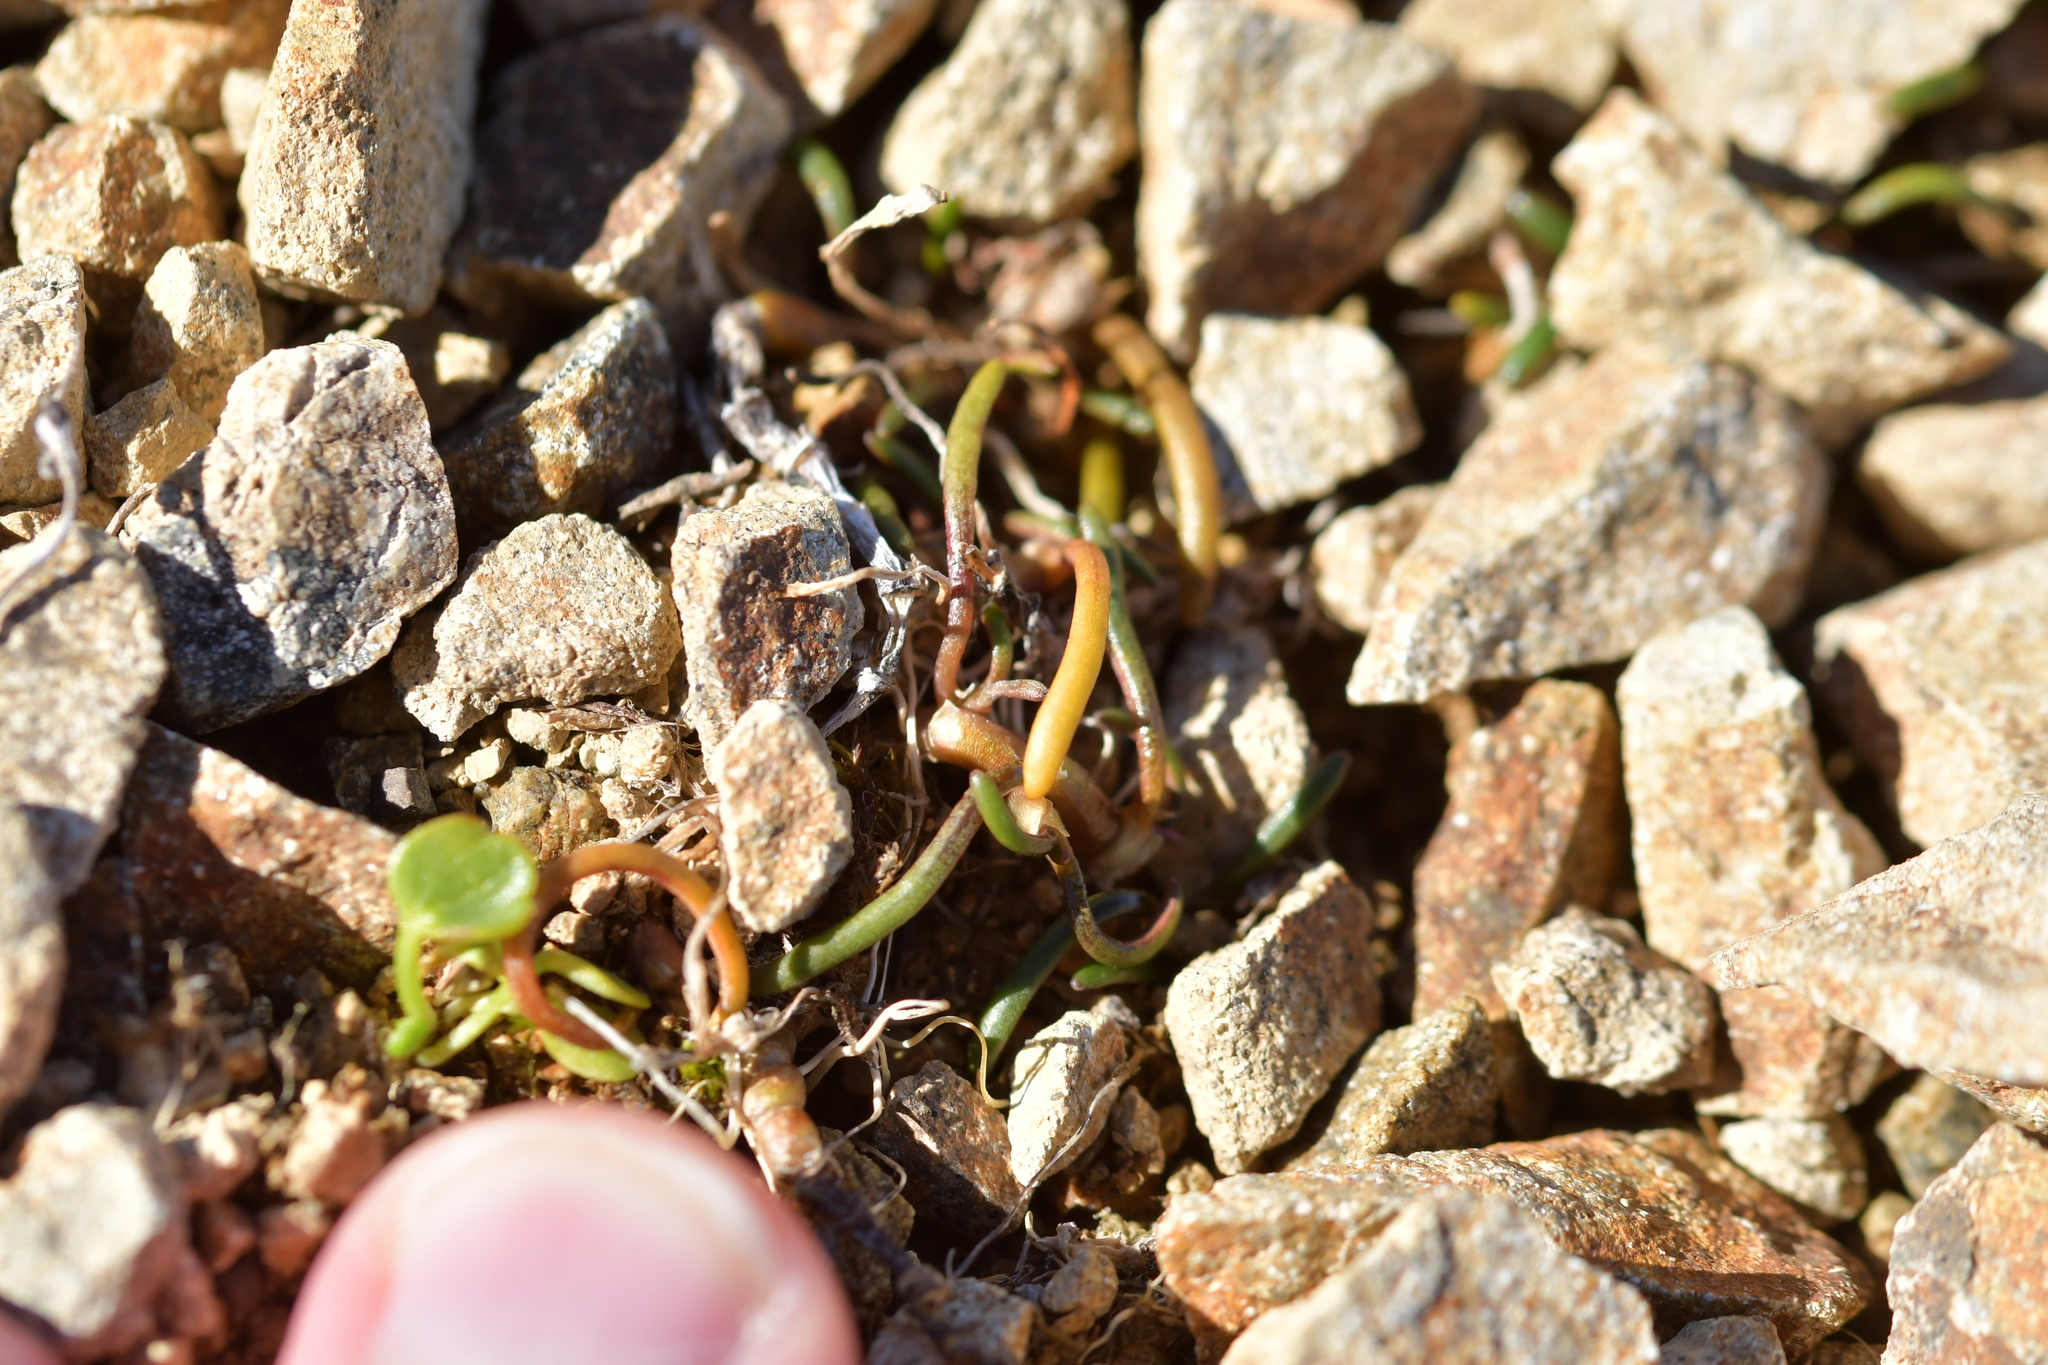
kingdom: Plantae
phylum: Tracheophyta
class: Magnoliopsida
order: Caryophyllales
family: Montiaceae
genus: Montia
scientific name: Montia calycina
